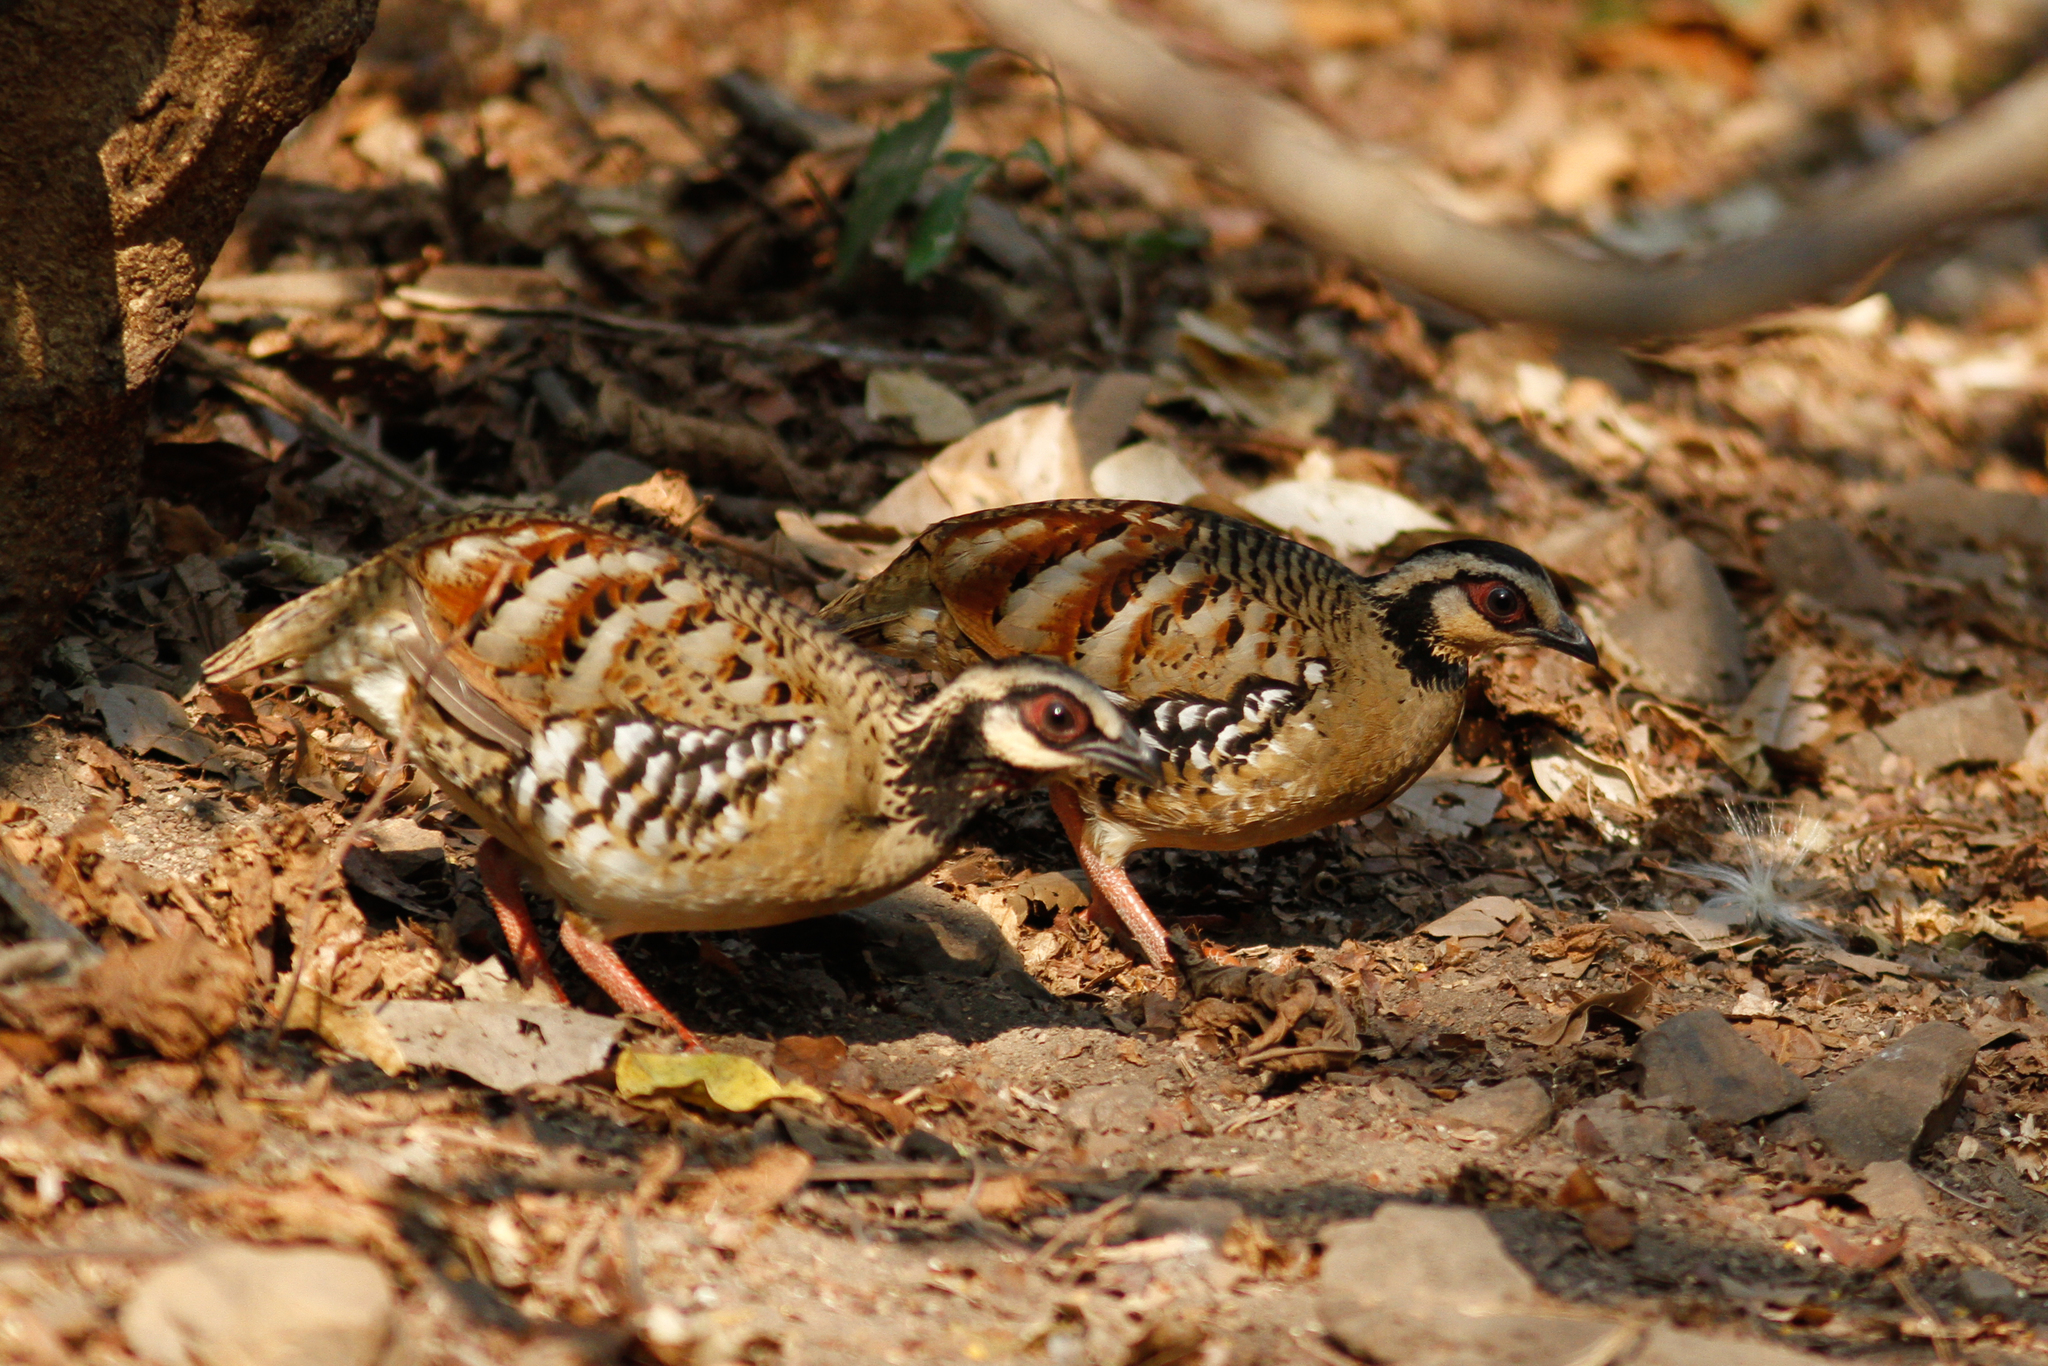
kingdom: Animalia
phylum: Chordata
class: Aves
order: Galliformes
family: Phasianidae
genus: Arborophila
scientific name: Arborophila brunneopectus
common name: Bar-backed partridge
